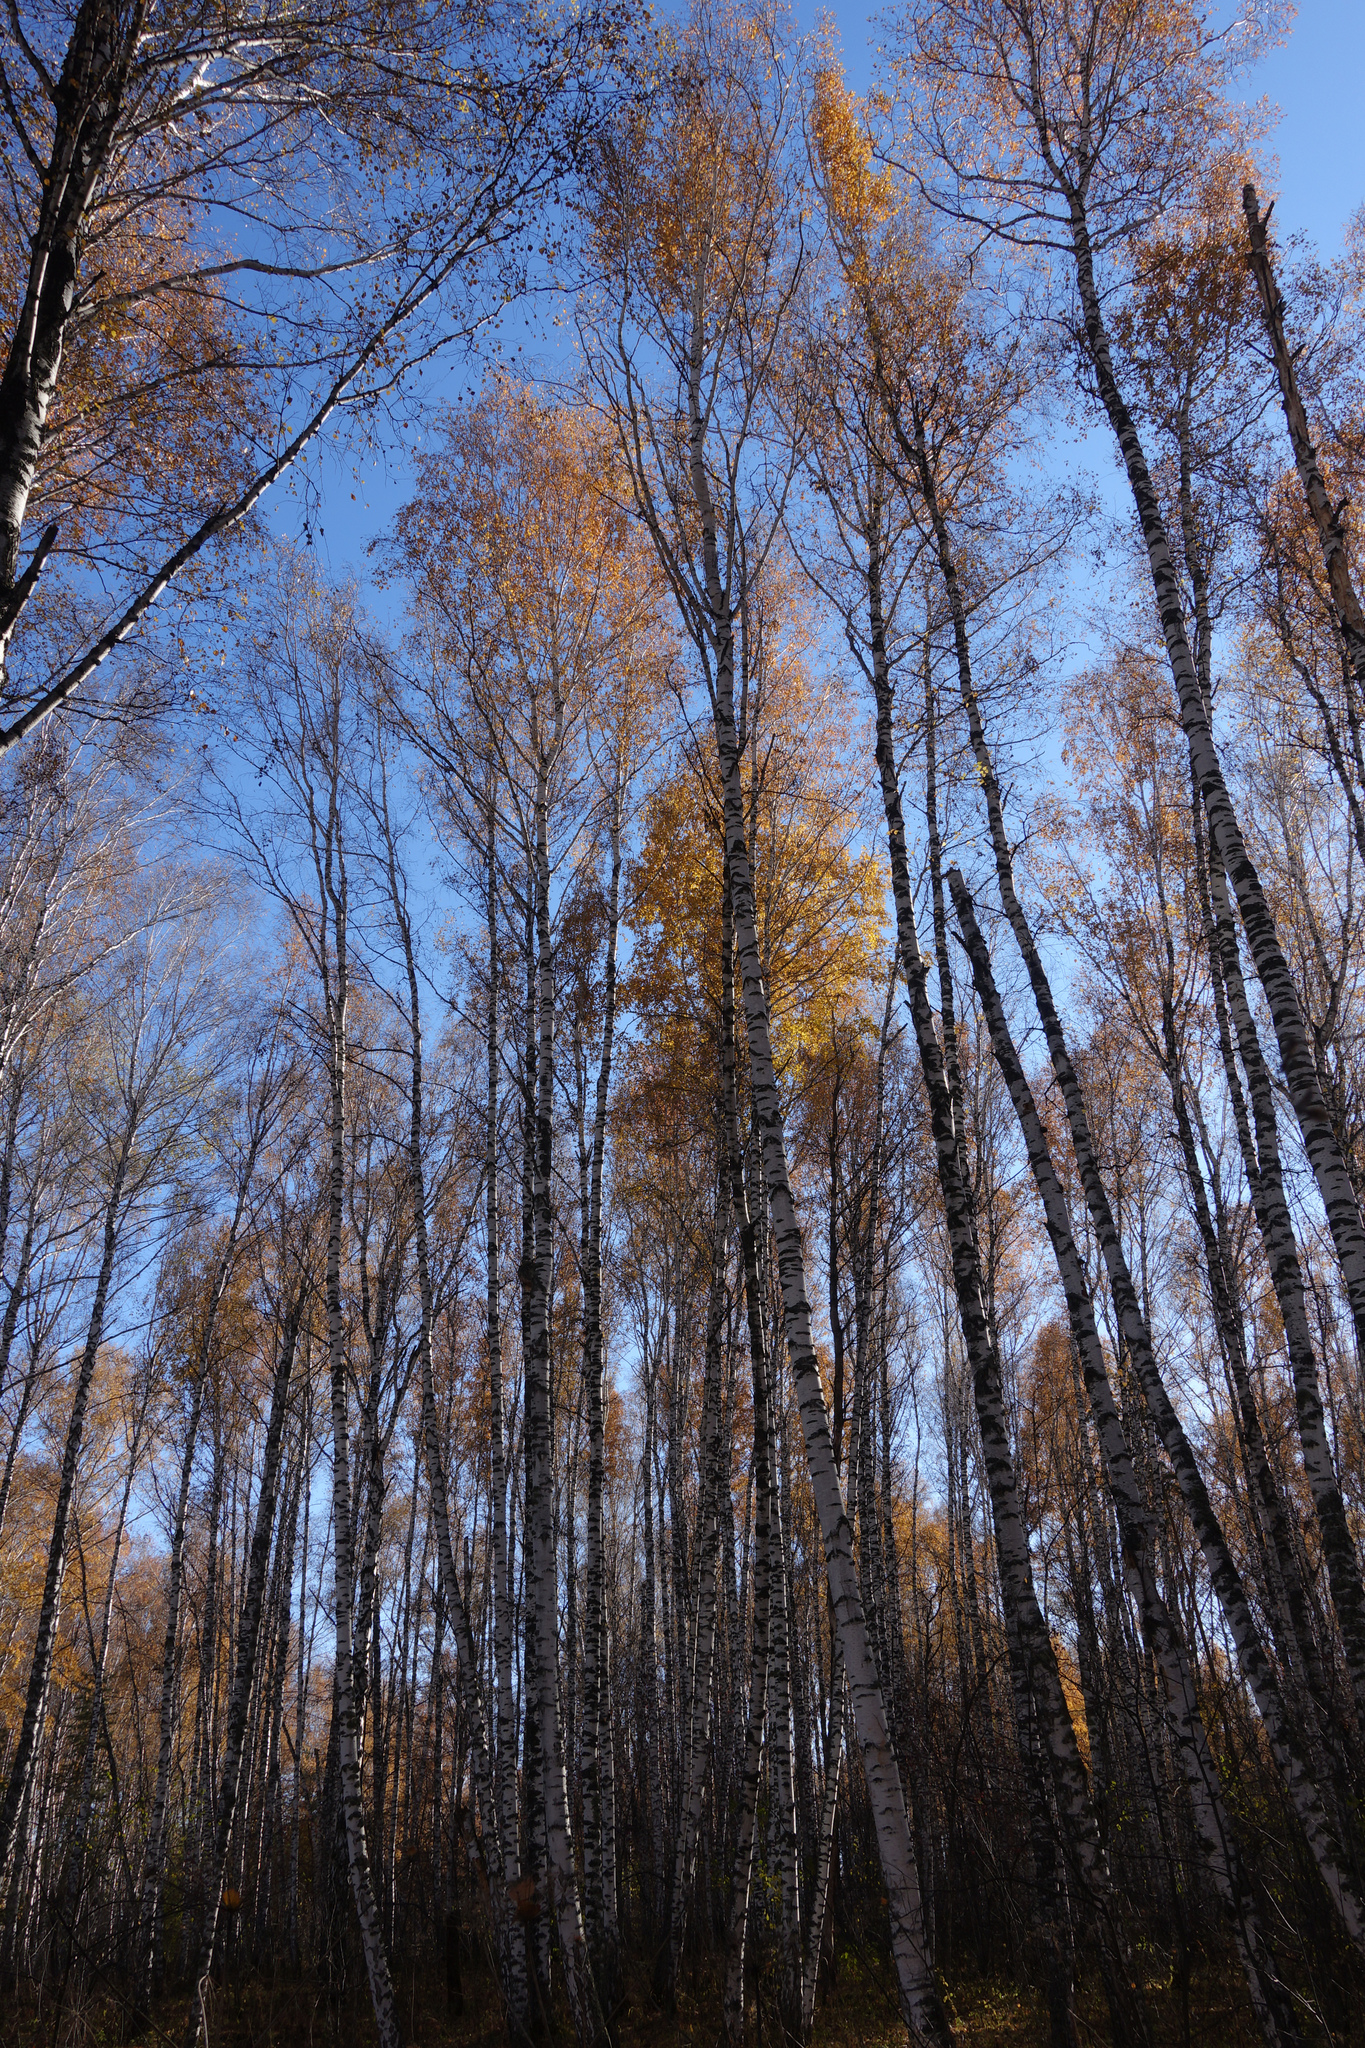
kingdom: Plantae
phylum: Tracheophyta
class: Magnoliopsida
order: Fagales
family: Betulaceae
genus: Betula
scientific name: Betula pendula
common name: Silver birch
